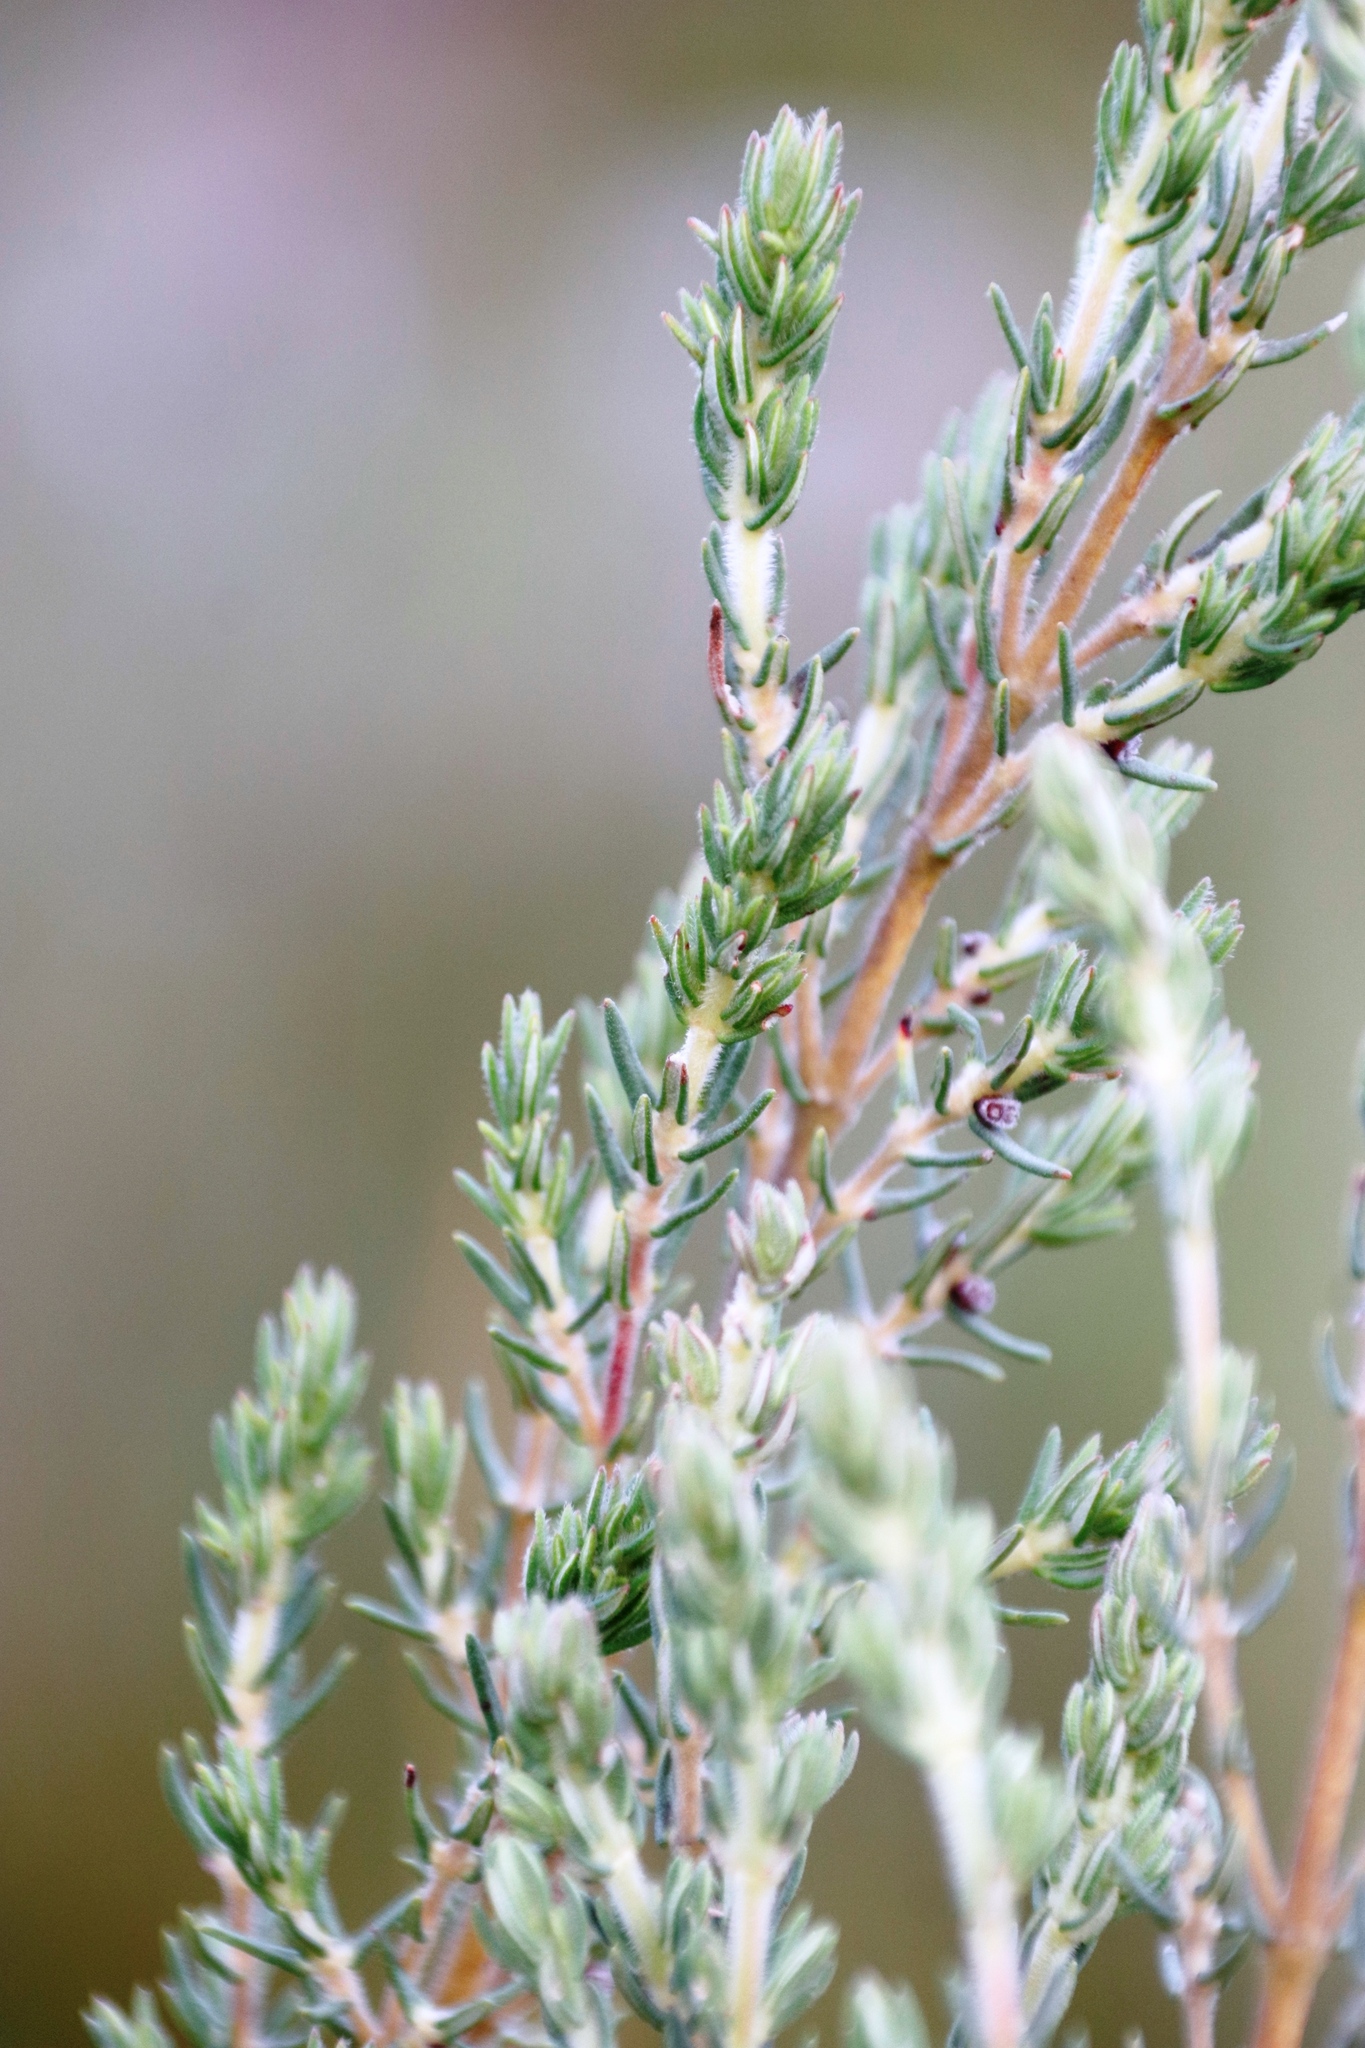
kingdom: Plantae
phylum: Tracheophyta
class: Magnoliopsida
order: Cornales
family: Grubbiaceae
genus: Grubbia
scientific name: Grubbia rosmarinifolia
